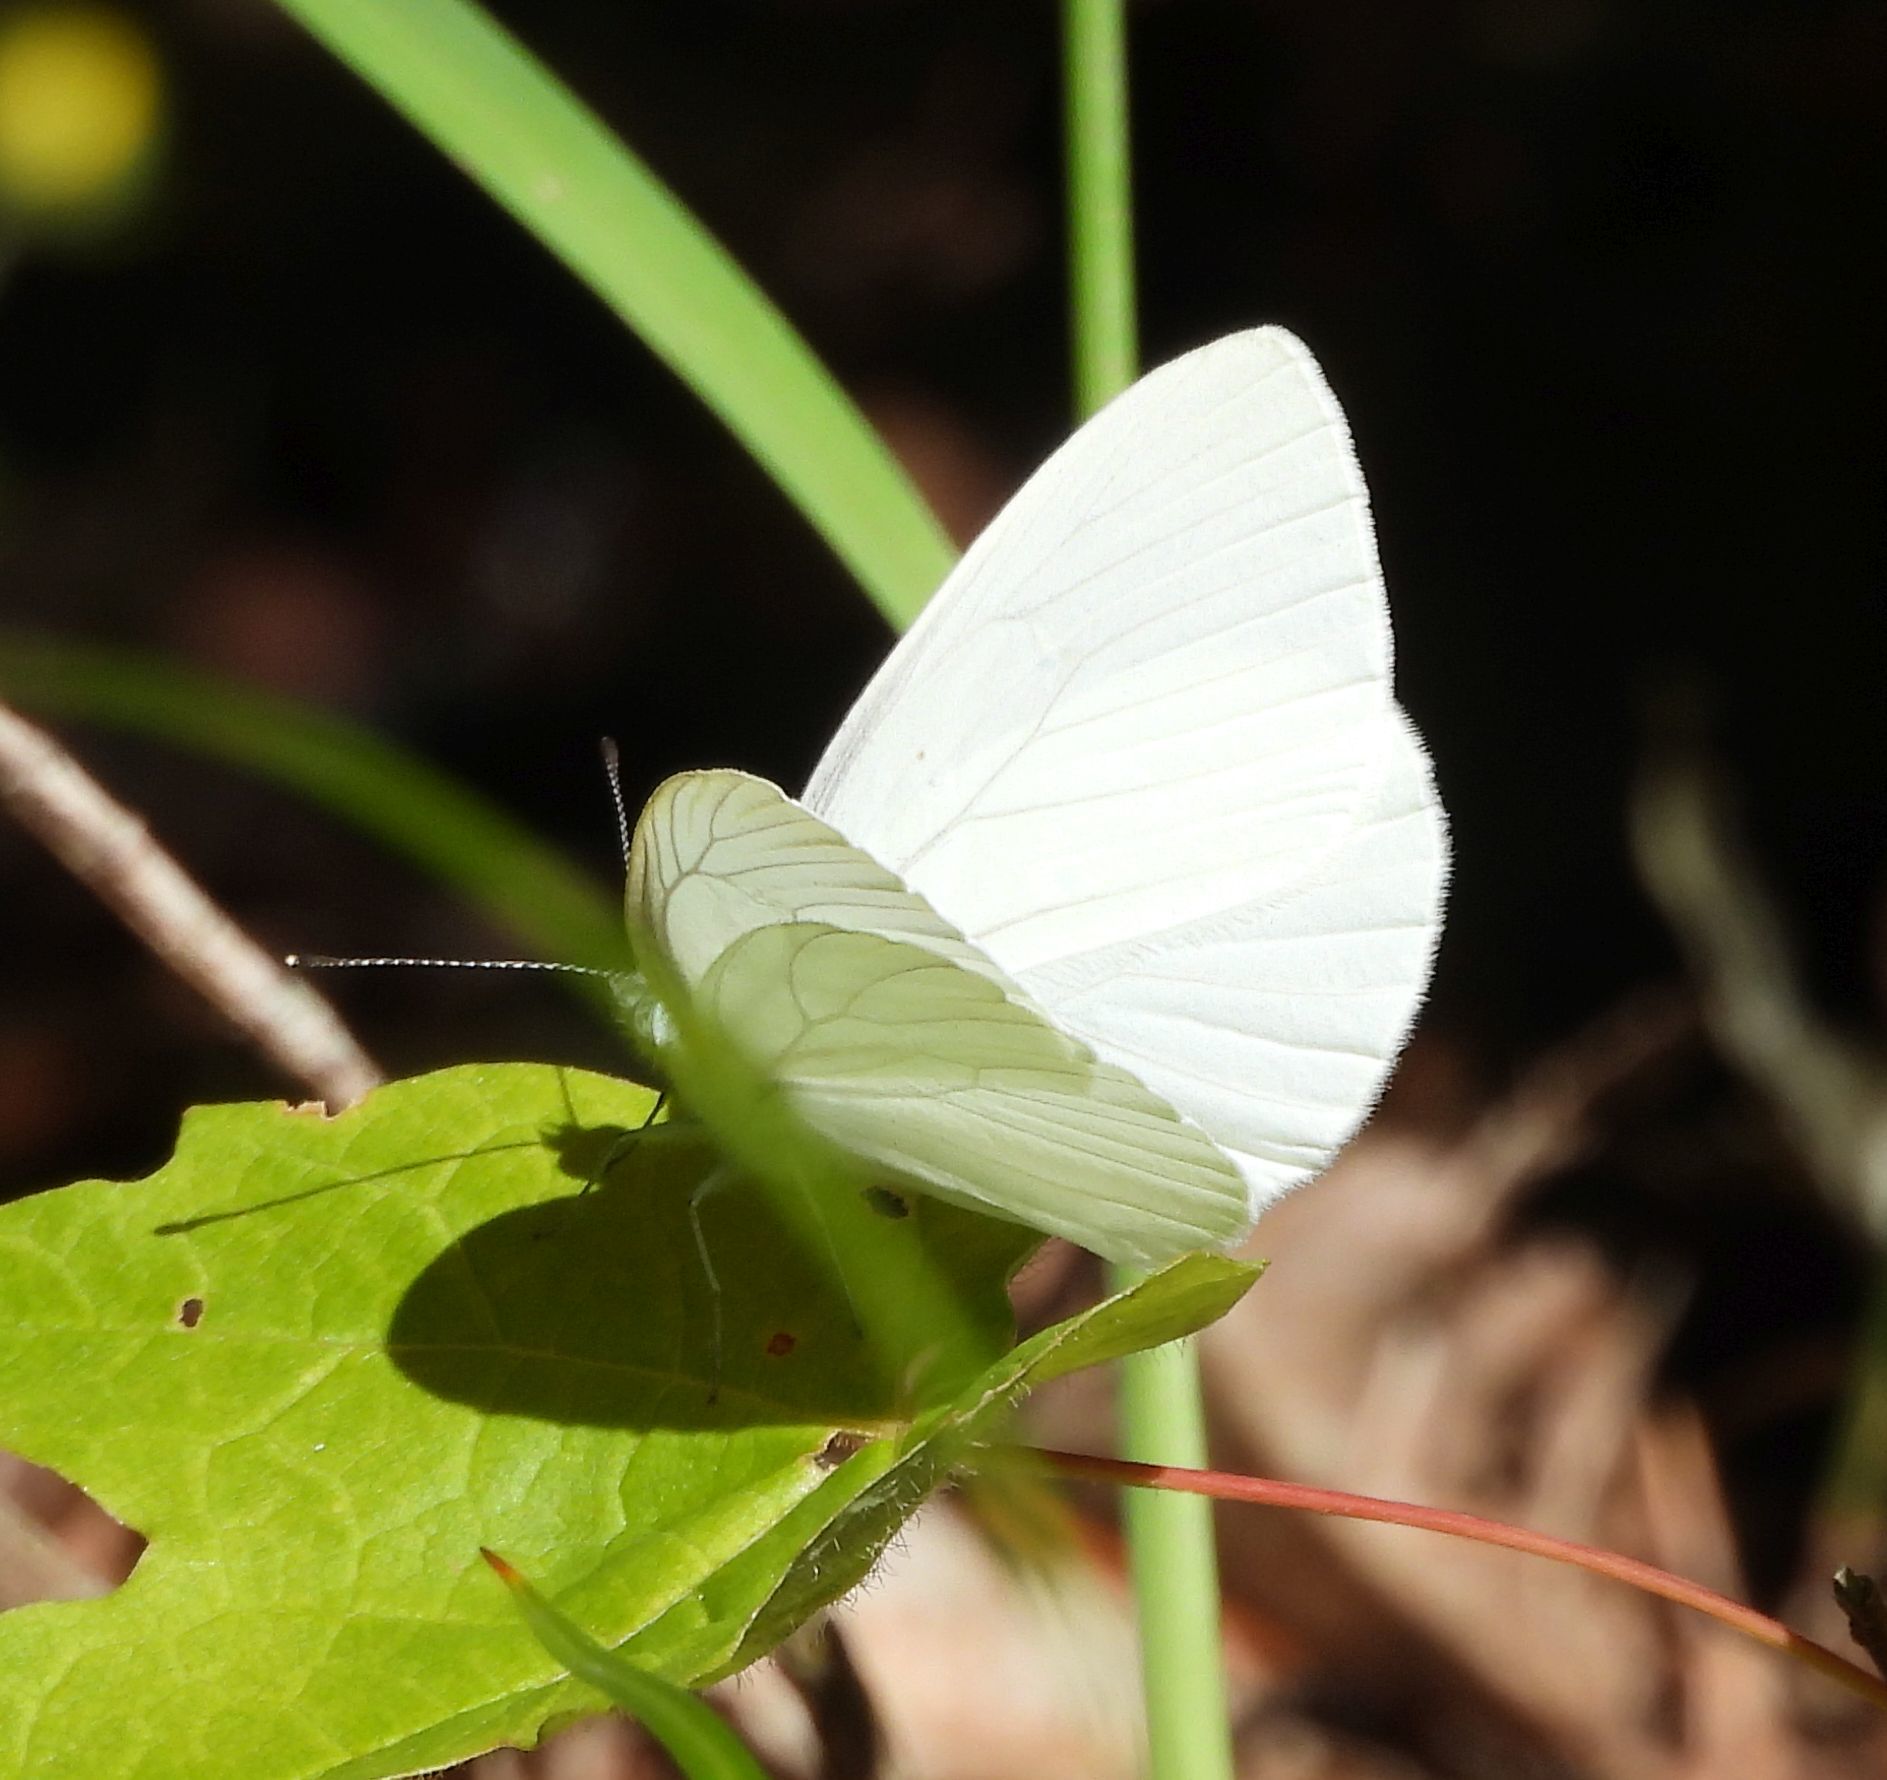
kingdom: Animalia
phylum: Arthropoda
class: Insecta
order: Lepidoptera
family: Pieridae
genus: Pieris
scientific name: Pieris oleracea
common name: Mustard white
